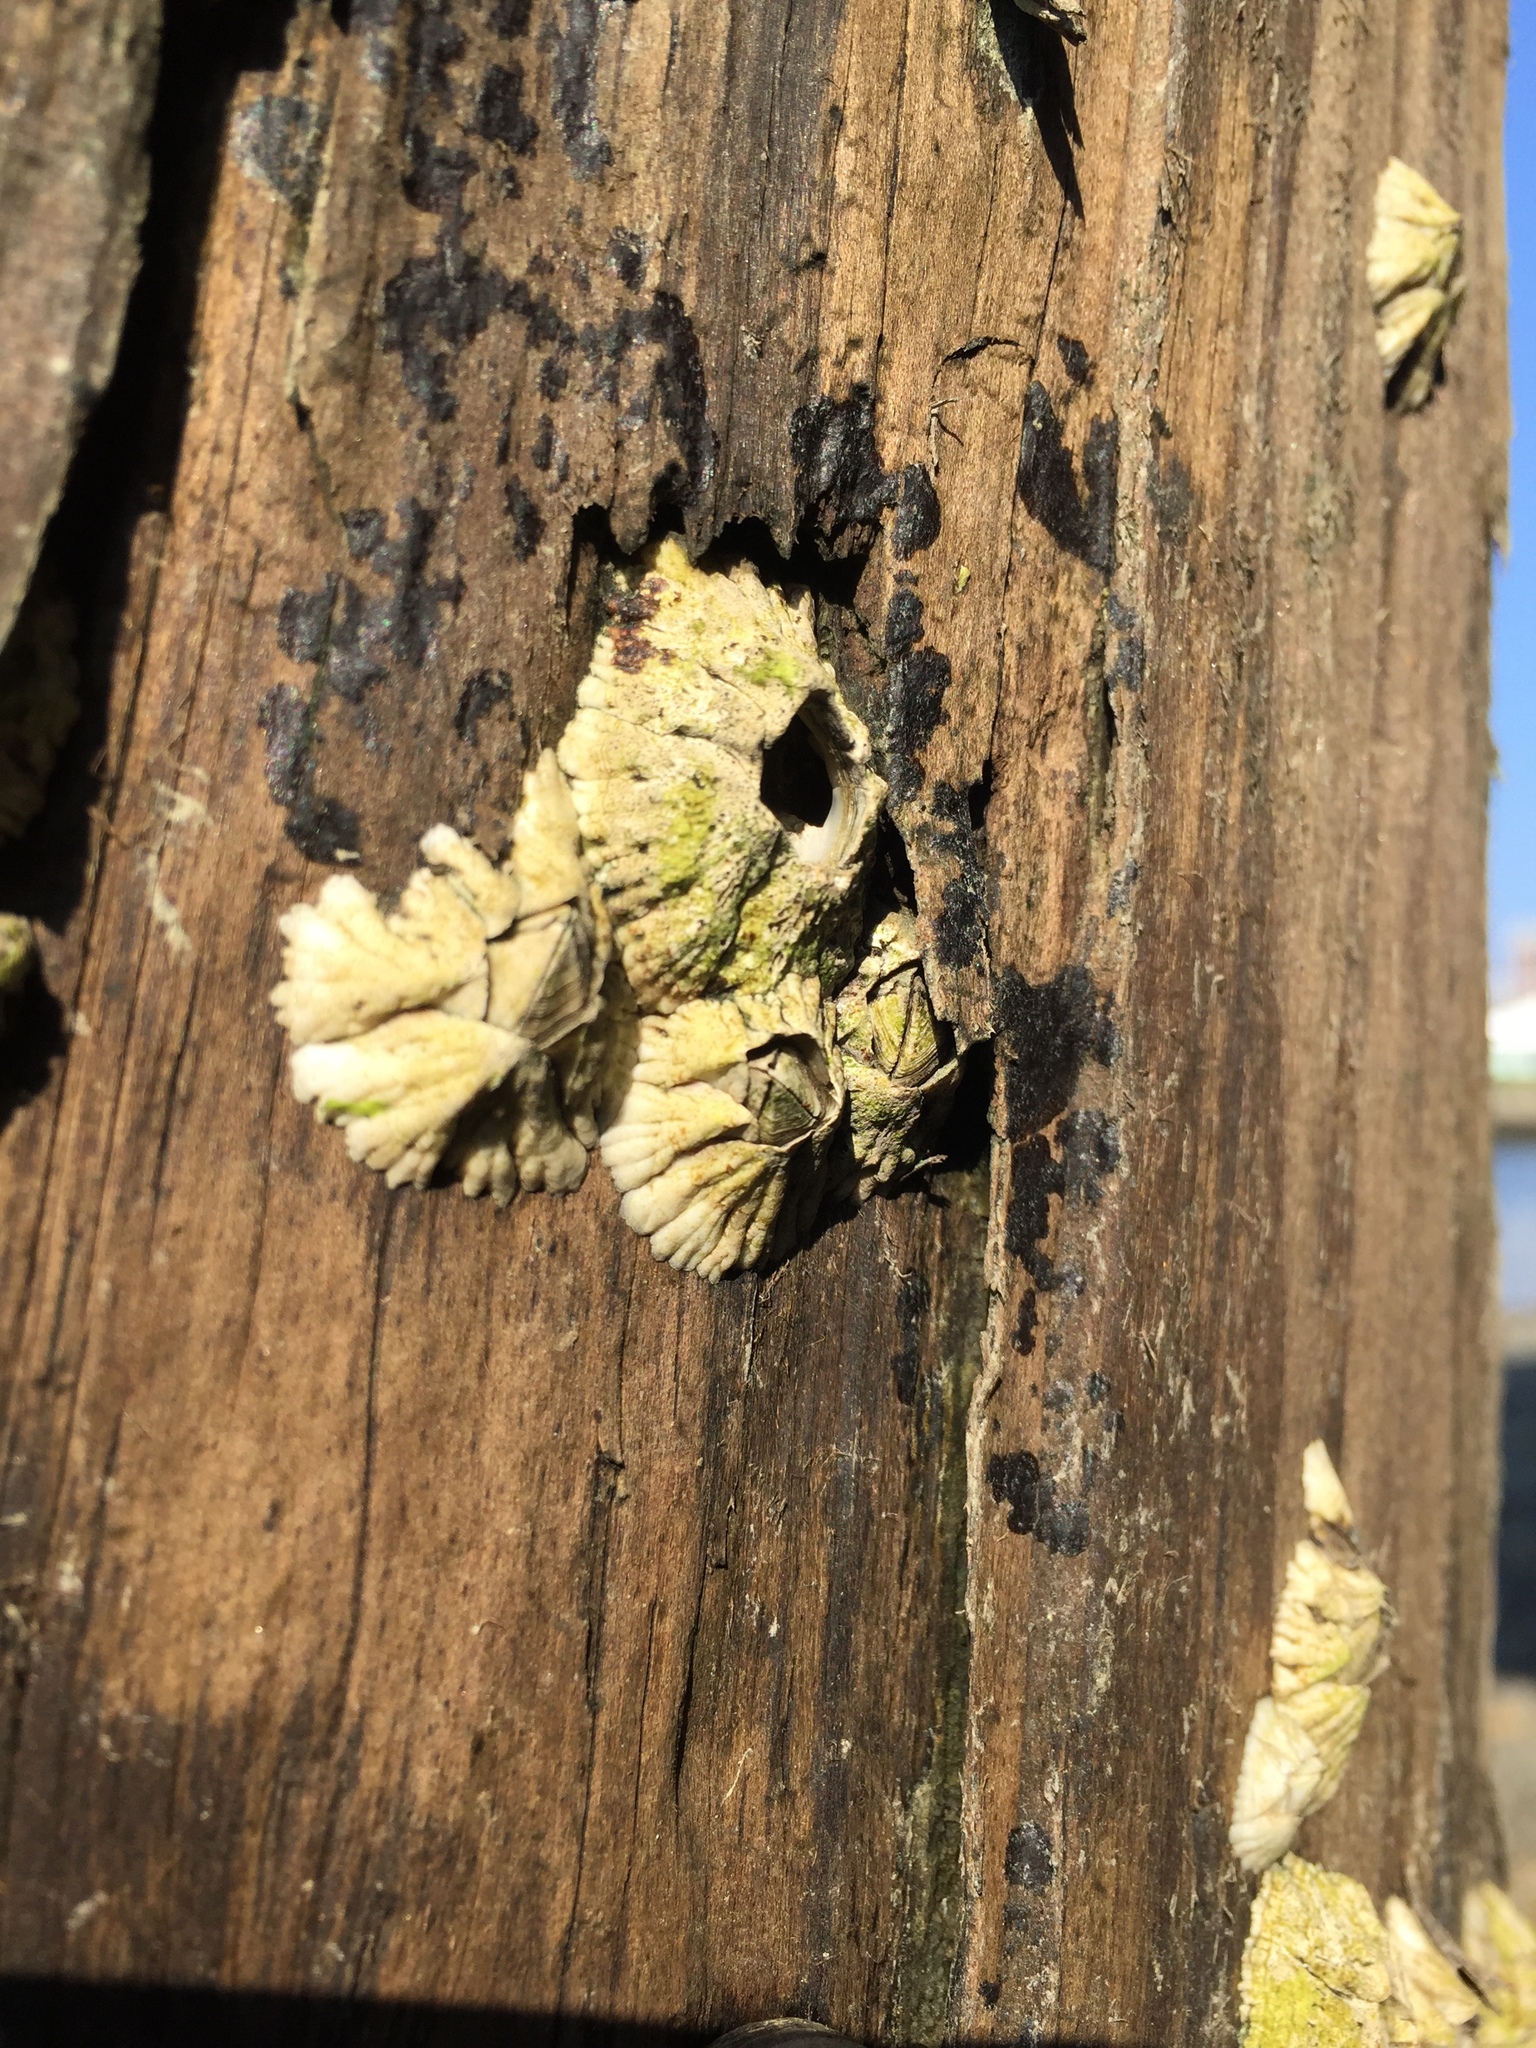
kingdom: Animalia
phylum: Arthropoda
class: Maxillopoda
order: Sessilia
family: Archaeobalanidae
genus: Semibalanus
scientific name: Semibalanus balanoides
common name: Acorn barnacle
